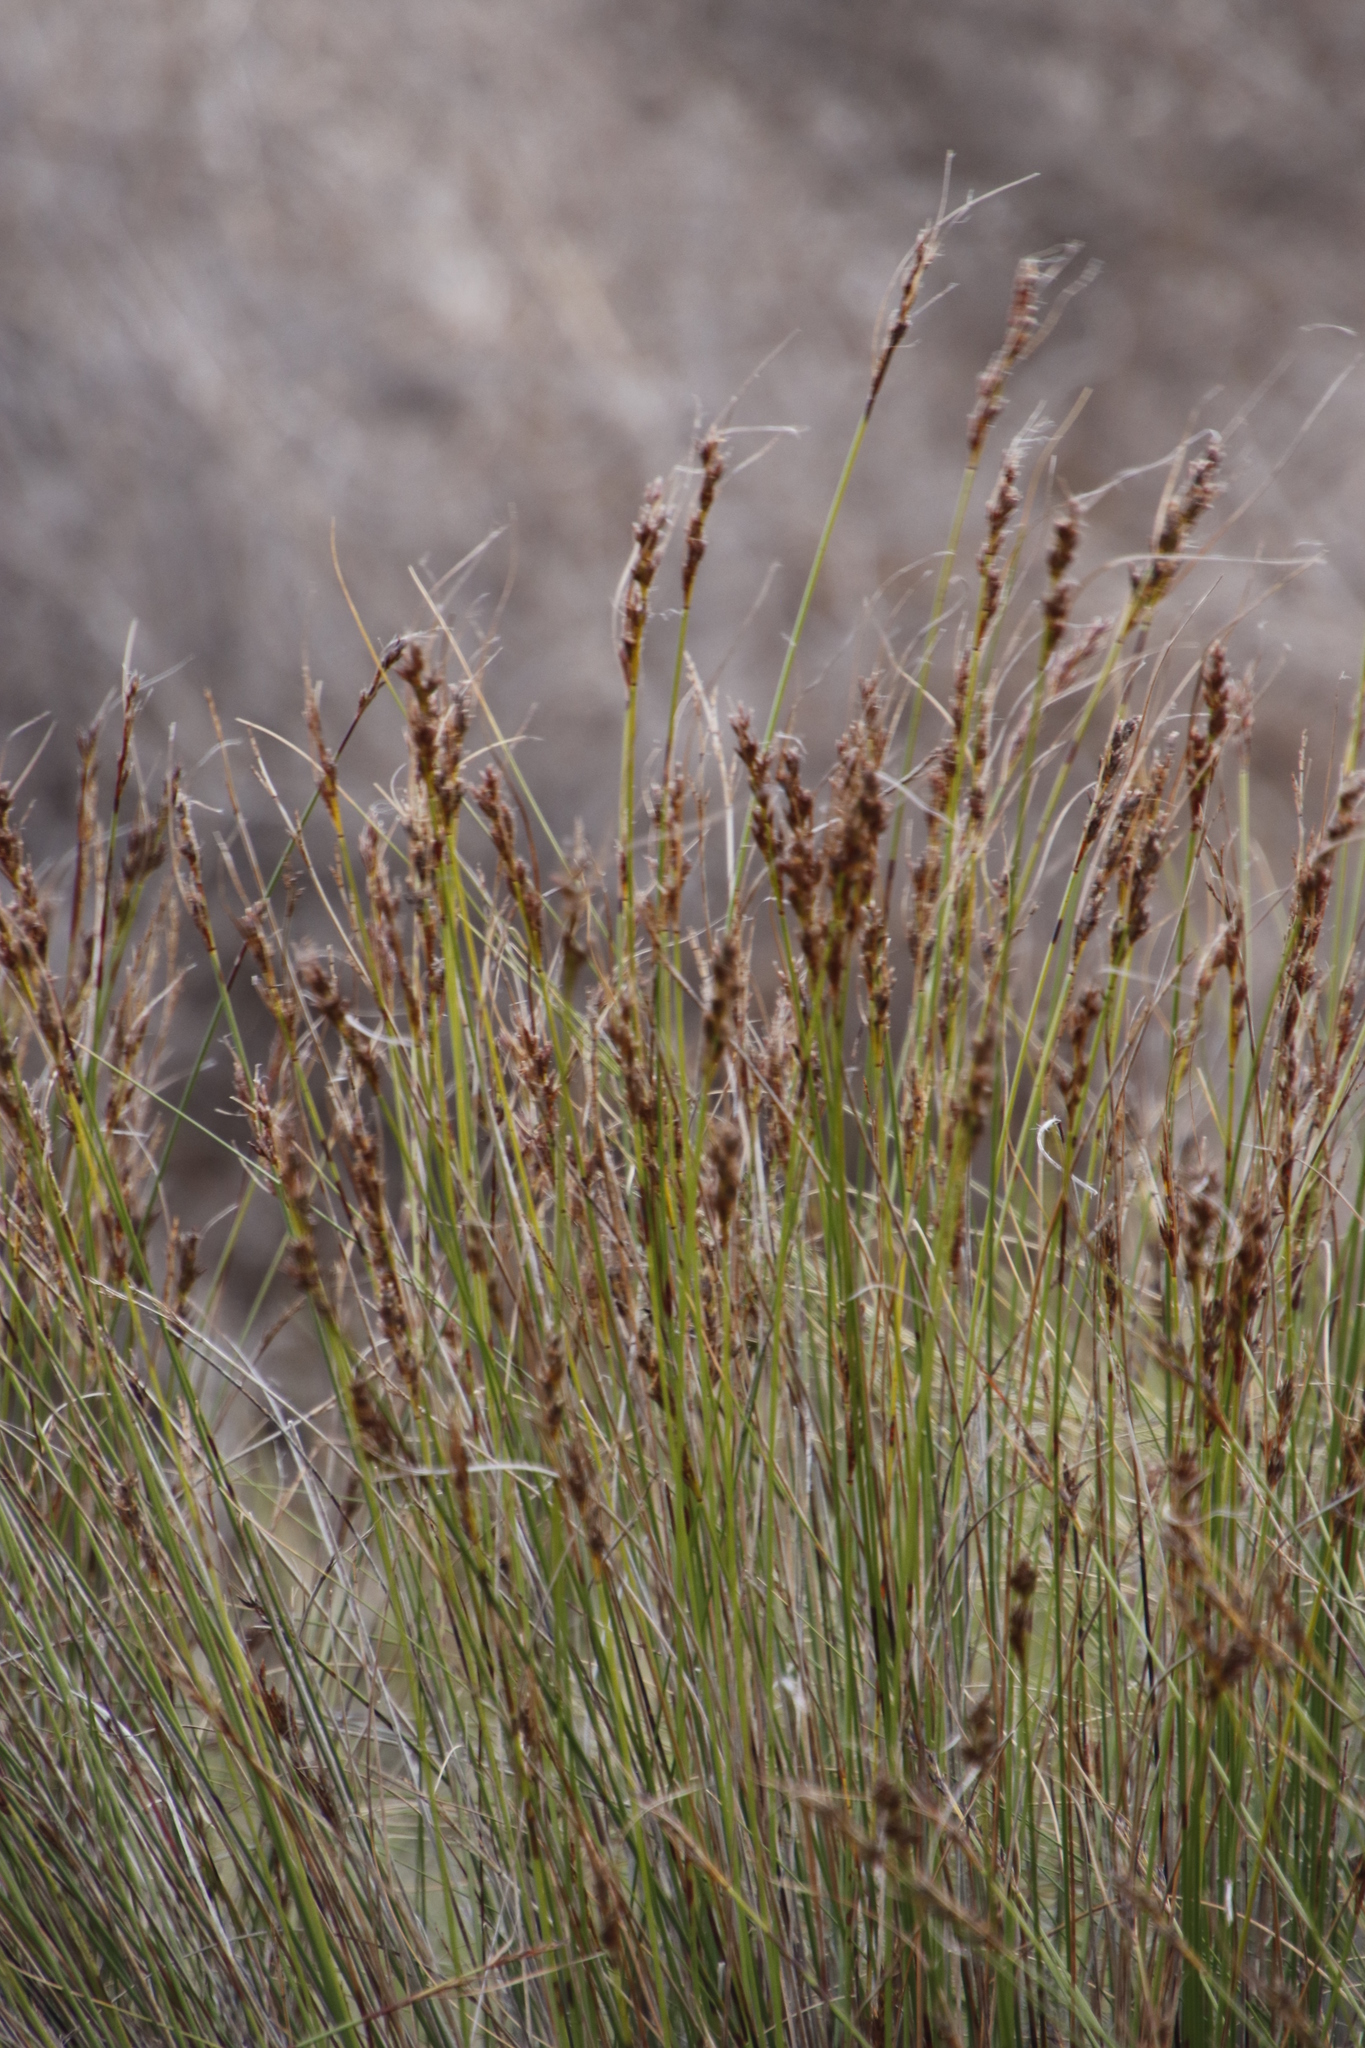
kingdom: Plantae
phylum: Tracheophyta
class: Liliopsida
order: Poales
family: Cyperaceae
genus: Schoenus
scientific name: Schoenus cuspidatus
